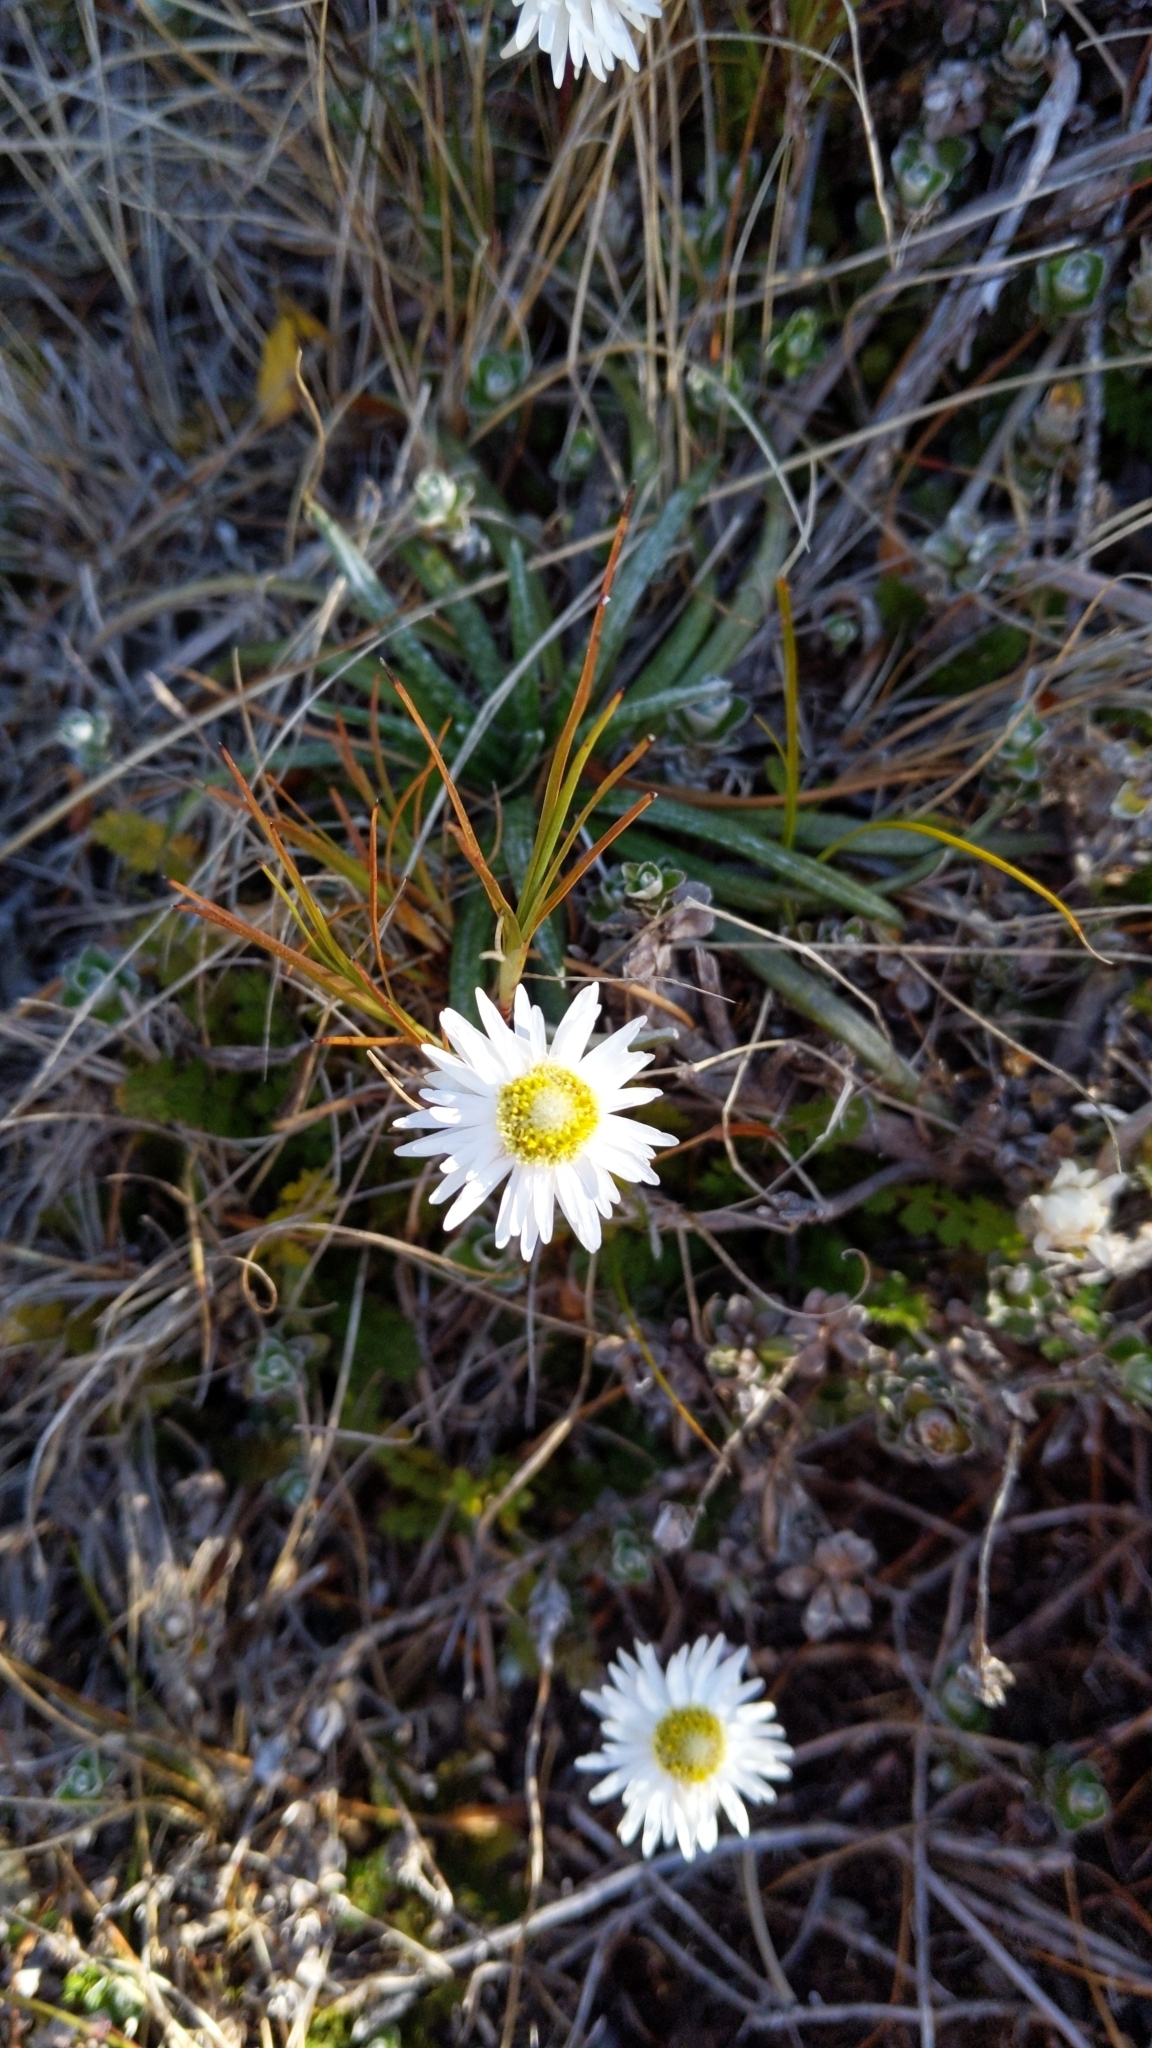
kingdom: Plantae
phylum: Tracheophyta
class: Magnoliopsida
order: Asterales
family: Asteraceae
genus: Anaphalioides
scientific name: Anaphalioides alpina
